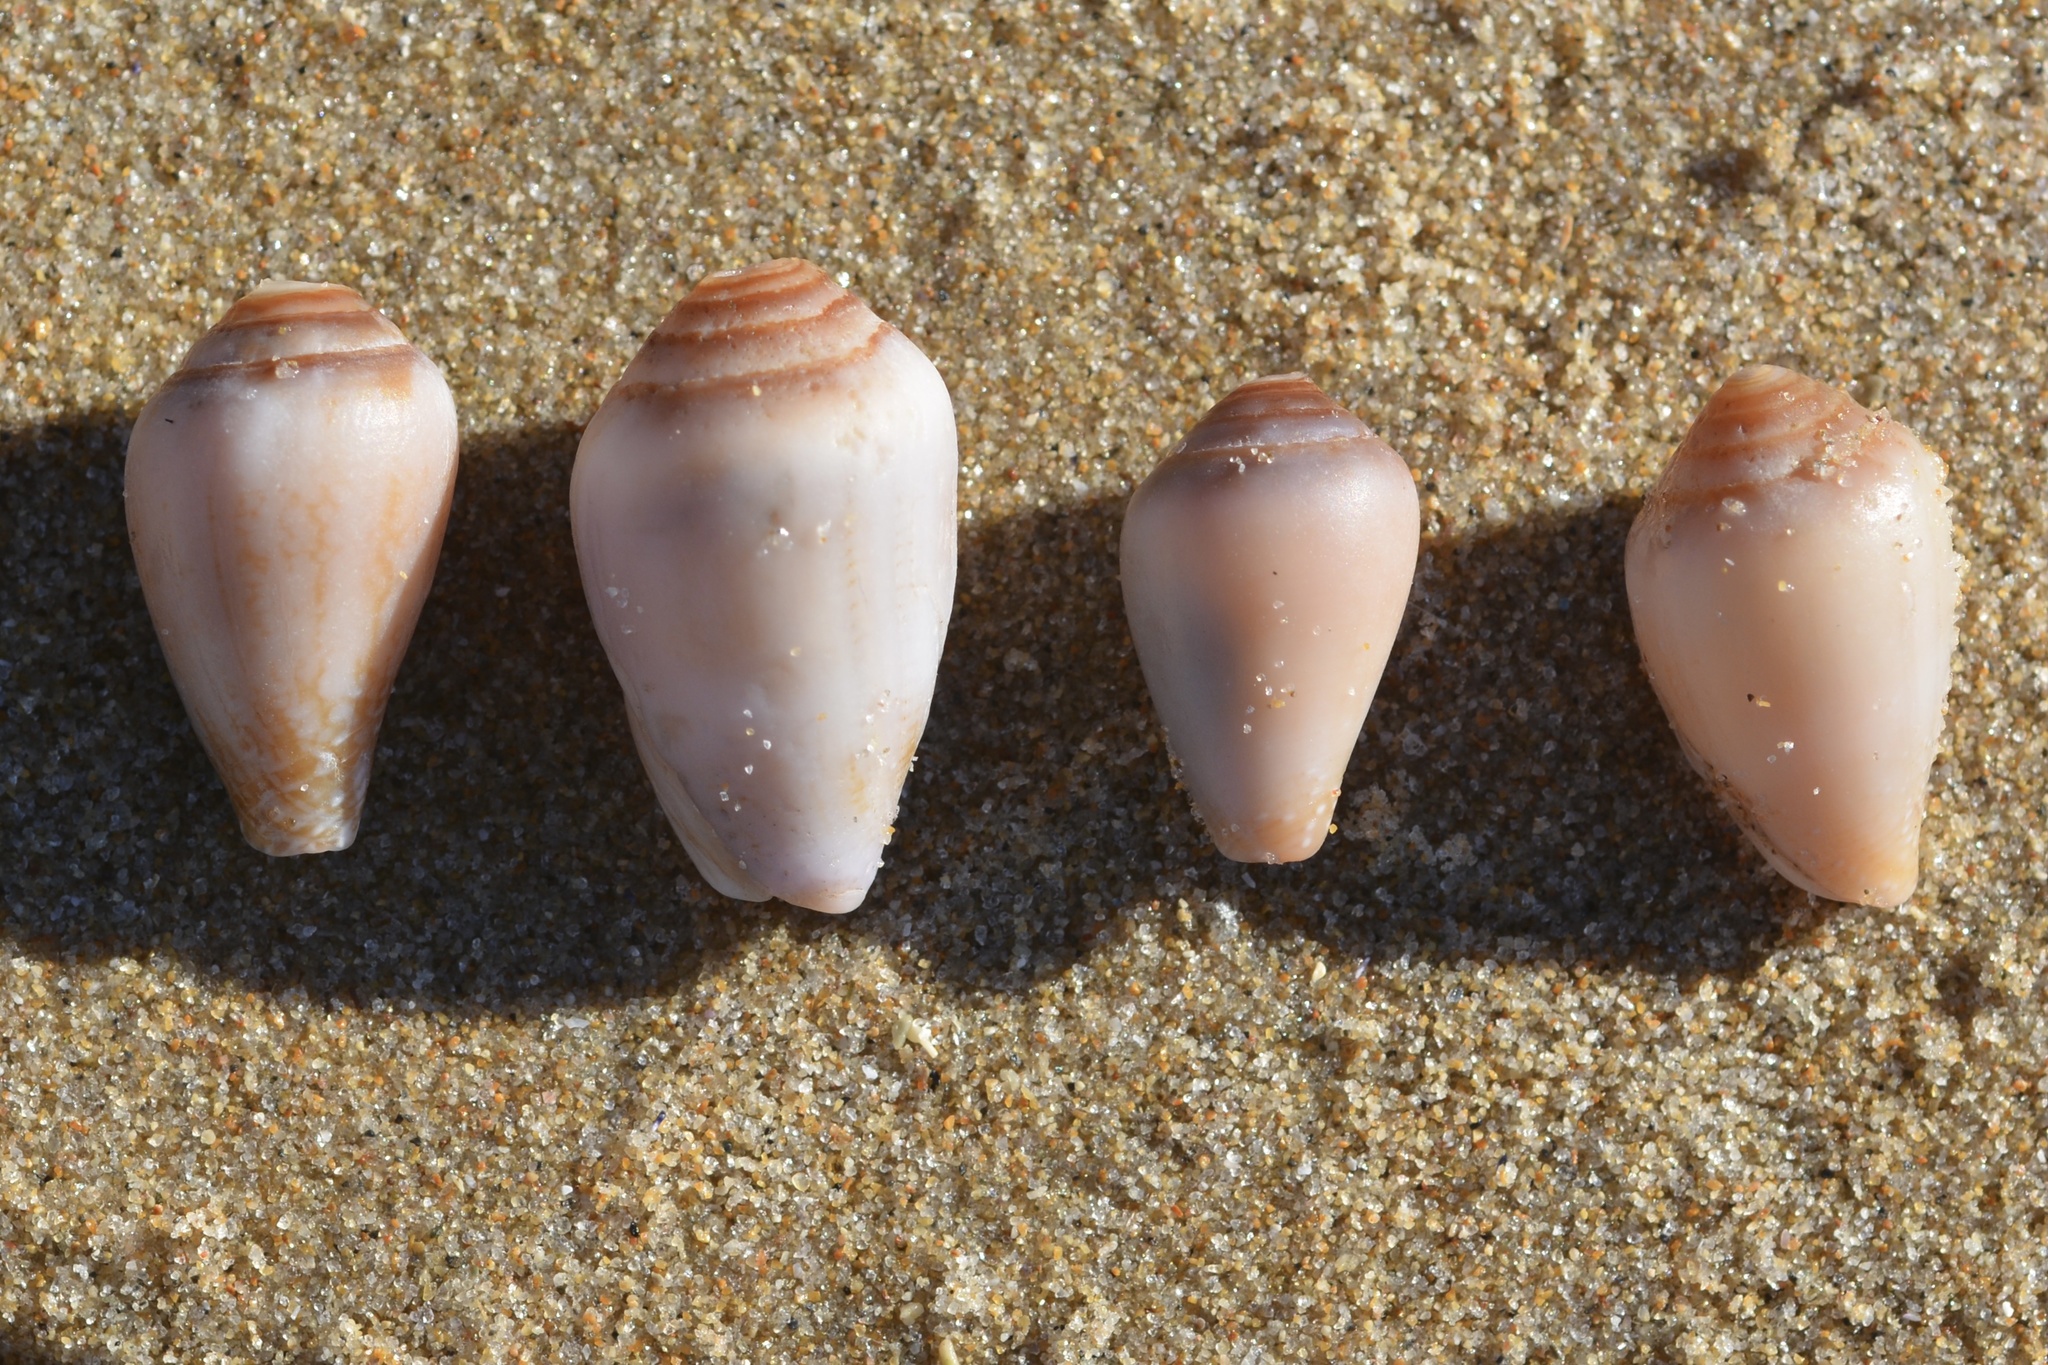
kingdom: Animalia
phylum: Mollusca
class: Gastropoda
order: Neogastropoda
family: Conidae
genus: Californiconus
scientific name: Californiconus californicus
